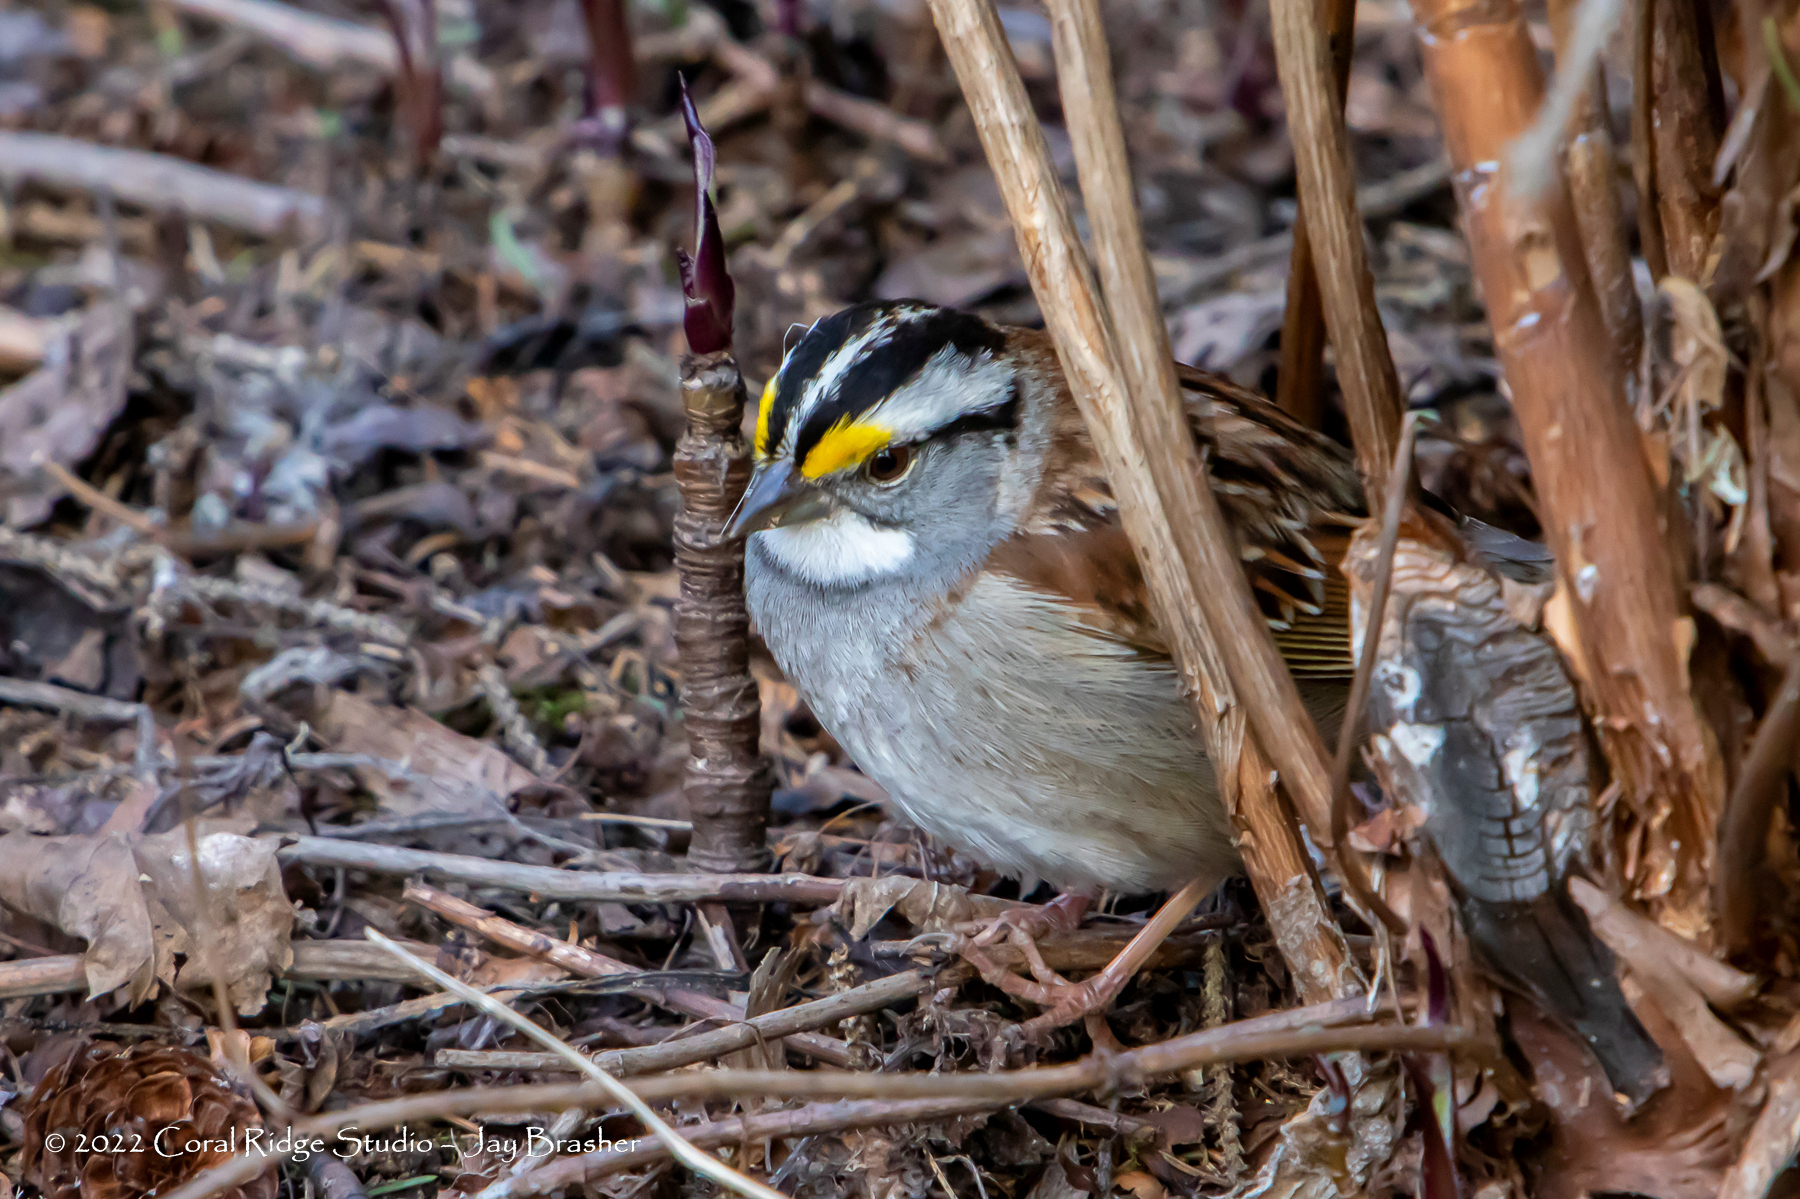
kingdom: Animalia
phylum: Chordata
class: Aves
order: Passeriformes
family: Passerellidae
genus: Zonotrichia
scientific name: Zonotrichia albicollis
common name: White-throated sparrow
